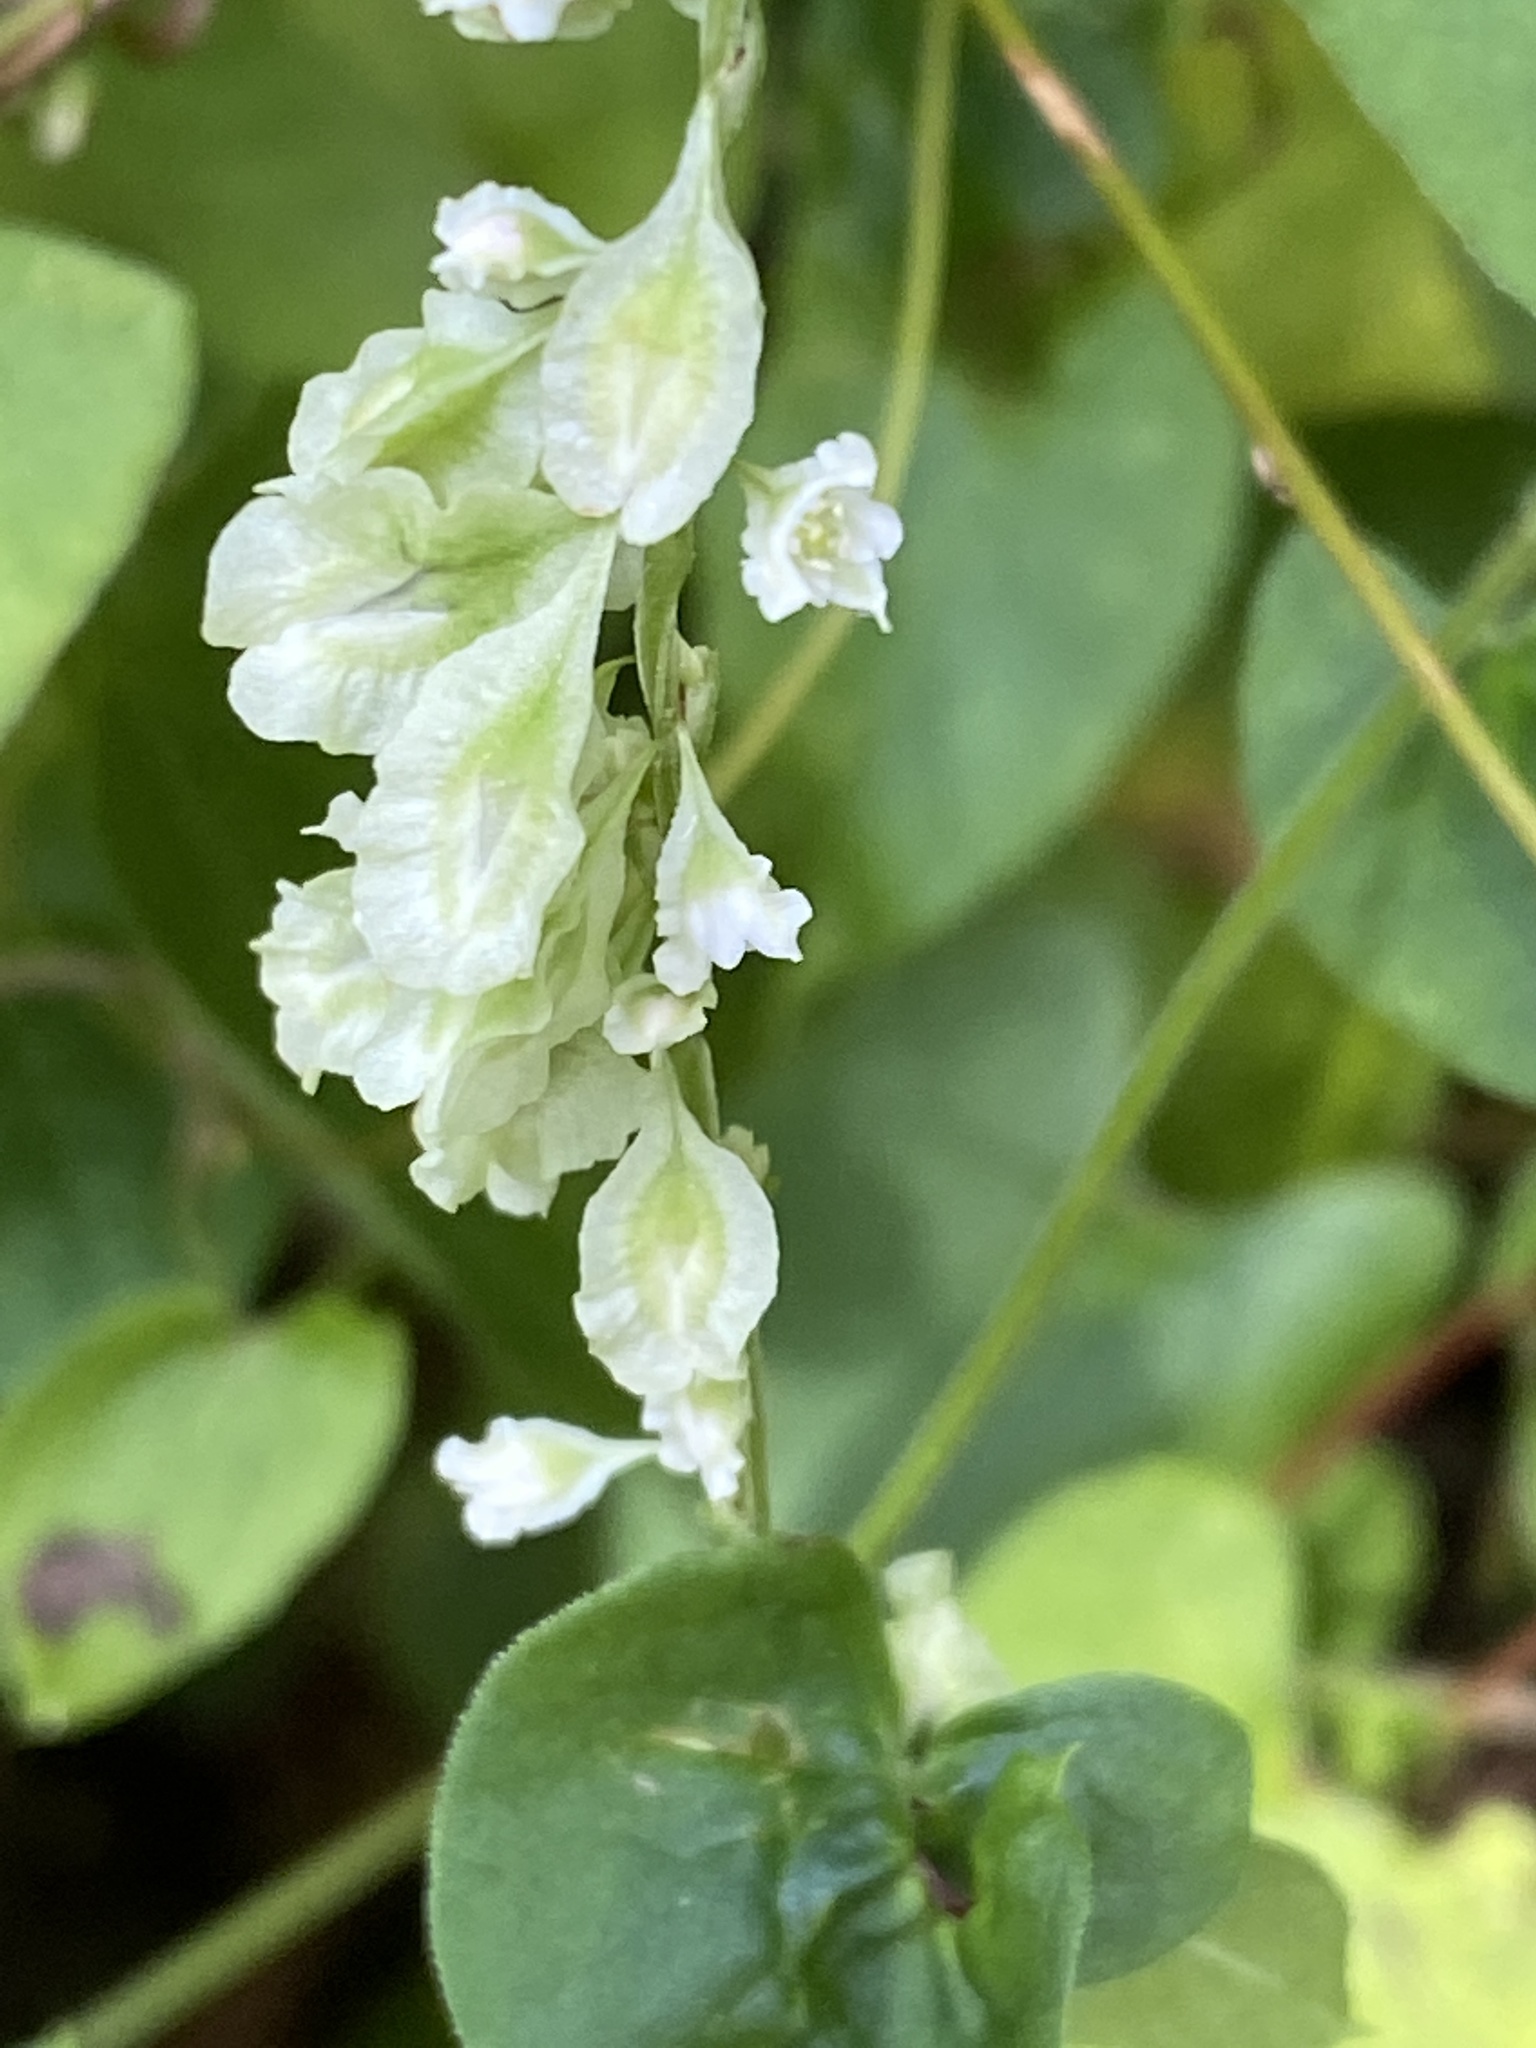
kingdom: Plantae
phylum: Tracheophyta
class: Magnoliopsida
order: Caryophyllales
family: Polygonaceae
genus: Fallopia
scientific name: Fallopia scandens
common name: Climbing false buckwheat
